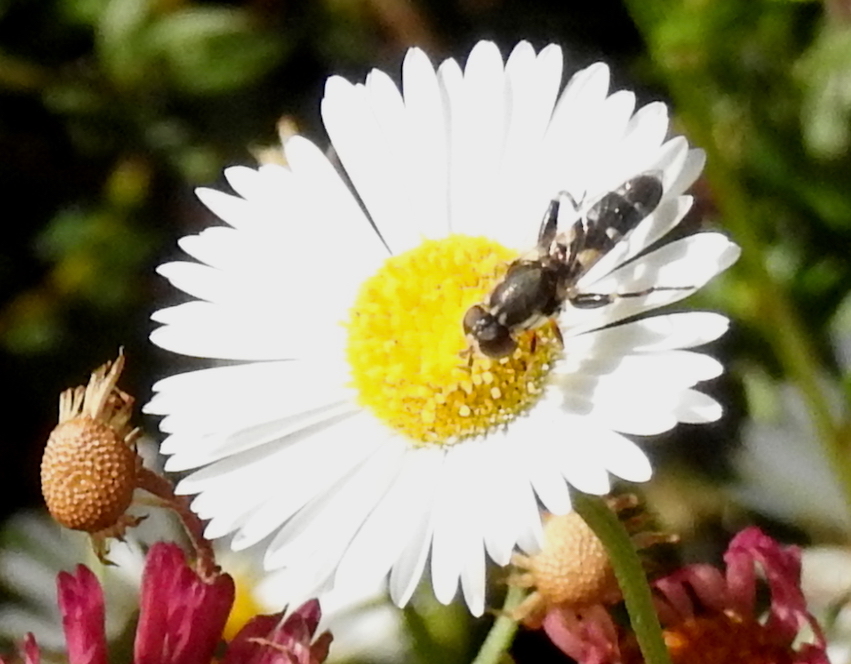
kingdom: Animalia
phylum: Arthropoda
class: Insecta
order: Diptera
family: Syrphidae
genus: Syritta
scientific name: Syritta pipiens
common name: Hover fly
